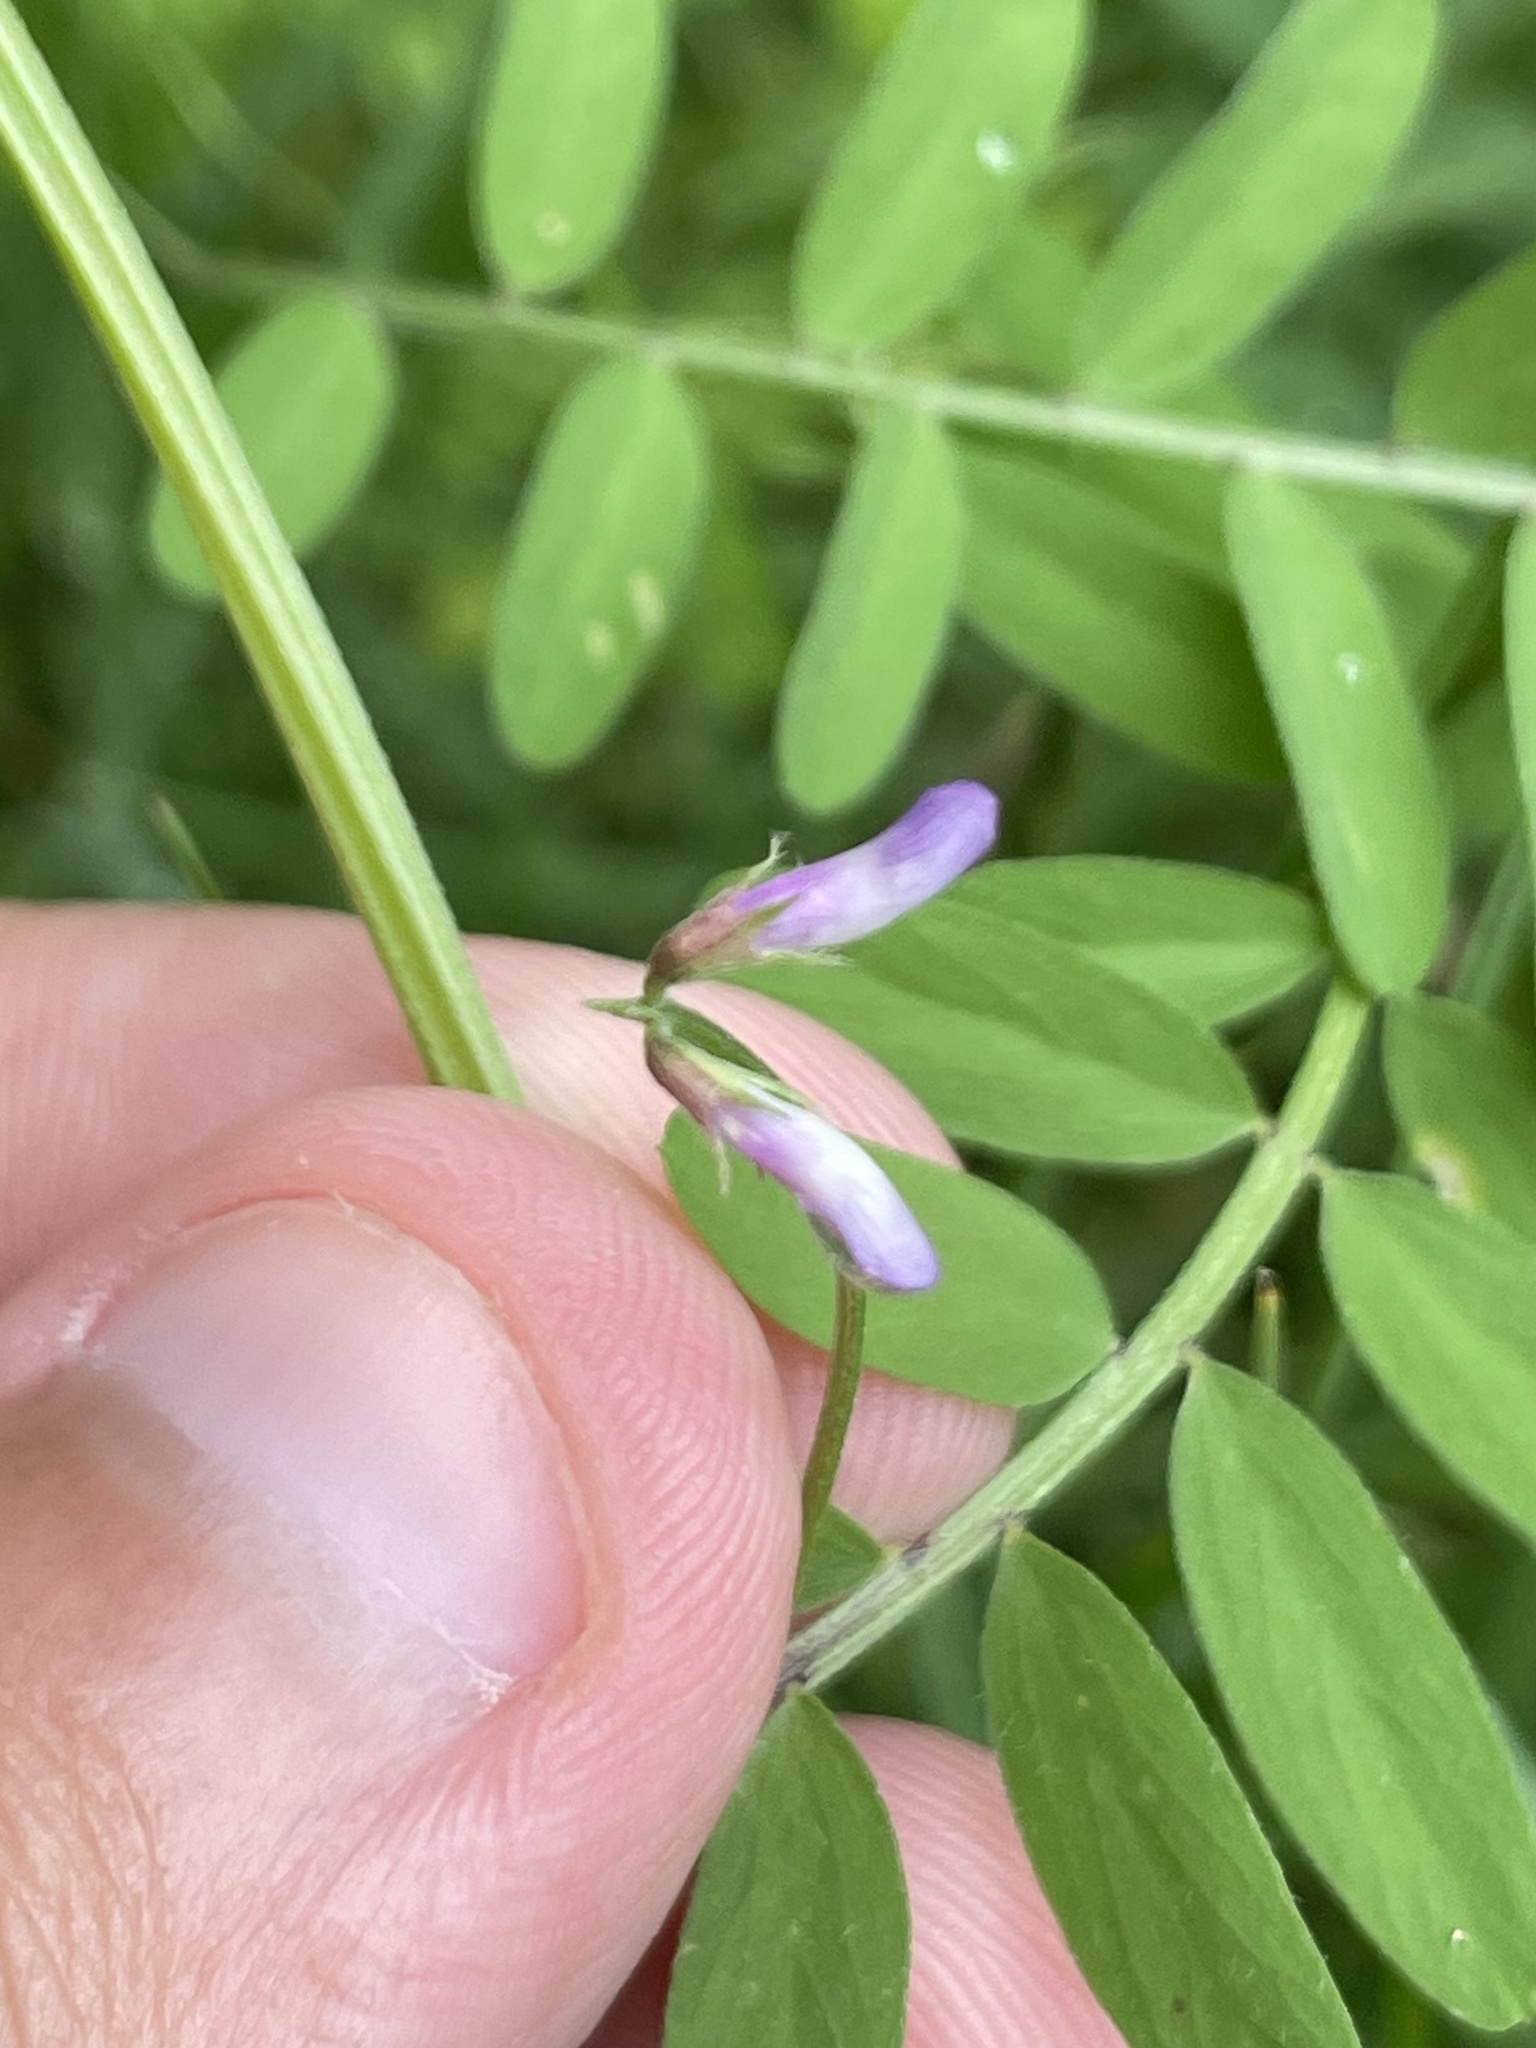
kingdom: Plantae
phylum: Tracheophyta
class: Magnoliopsida
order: Fabales
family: Fabaceae
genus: Vicia
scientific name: Vicia ludoviciana
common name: Louisiana vetch
